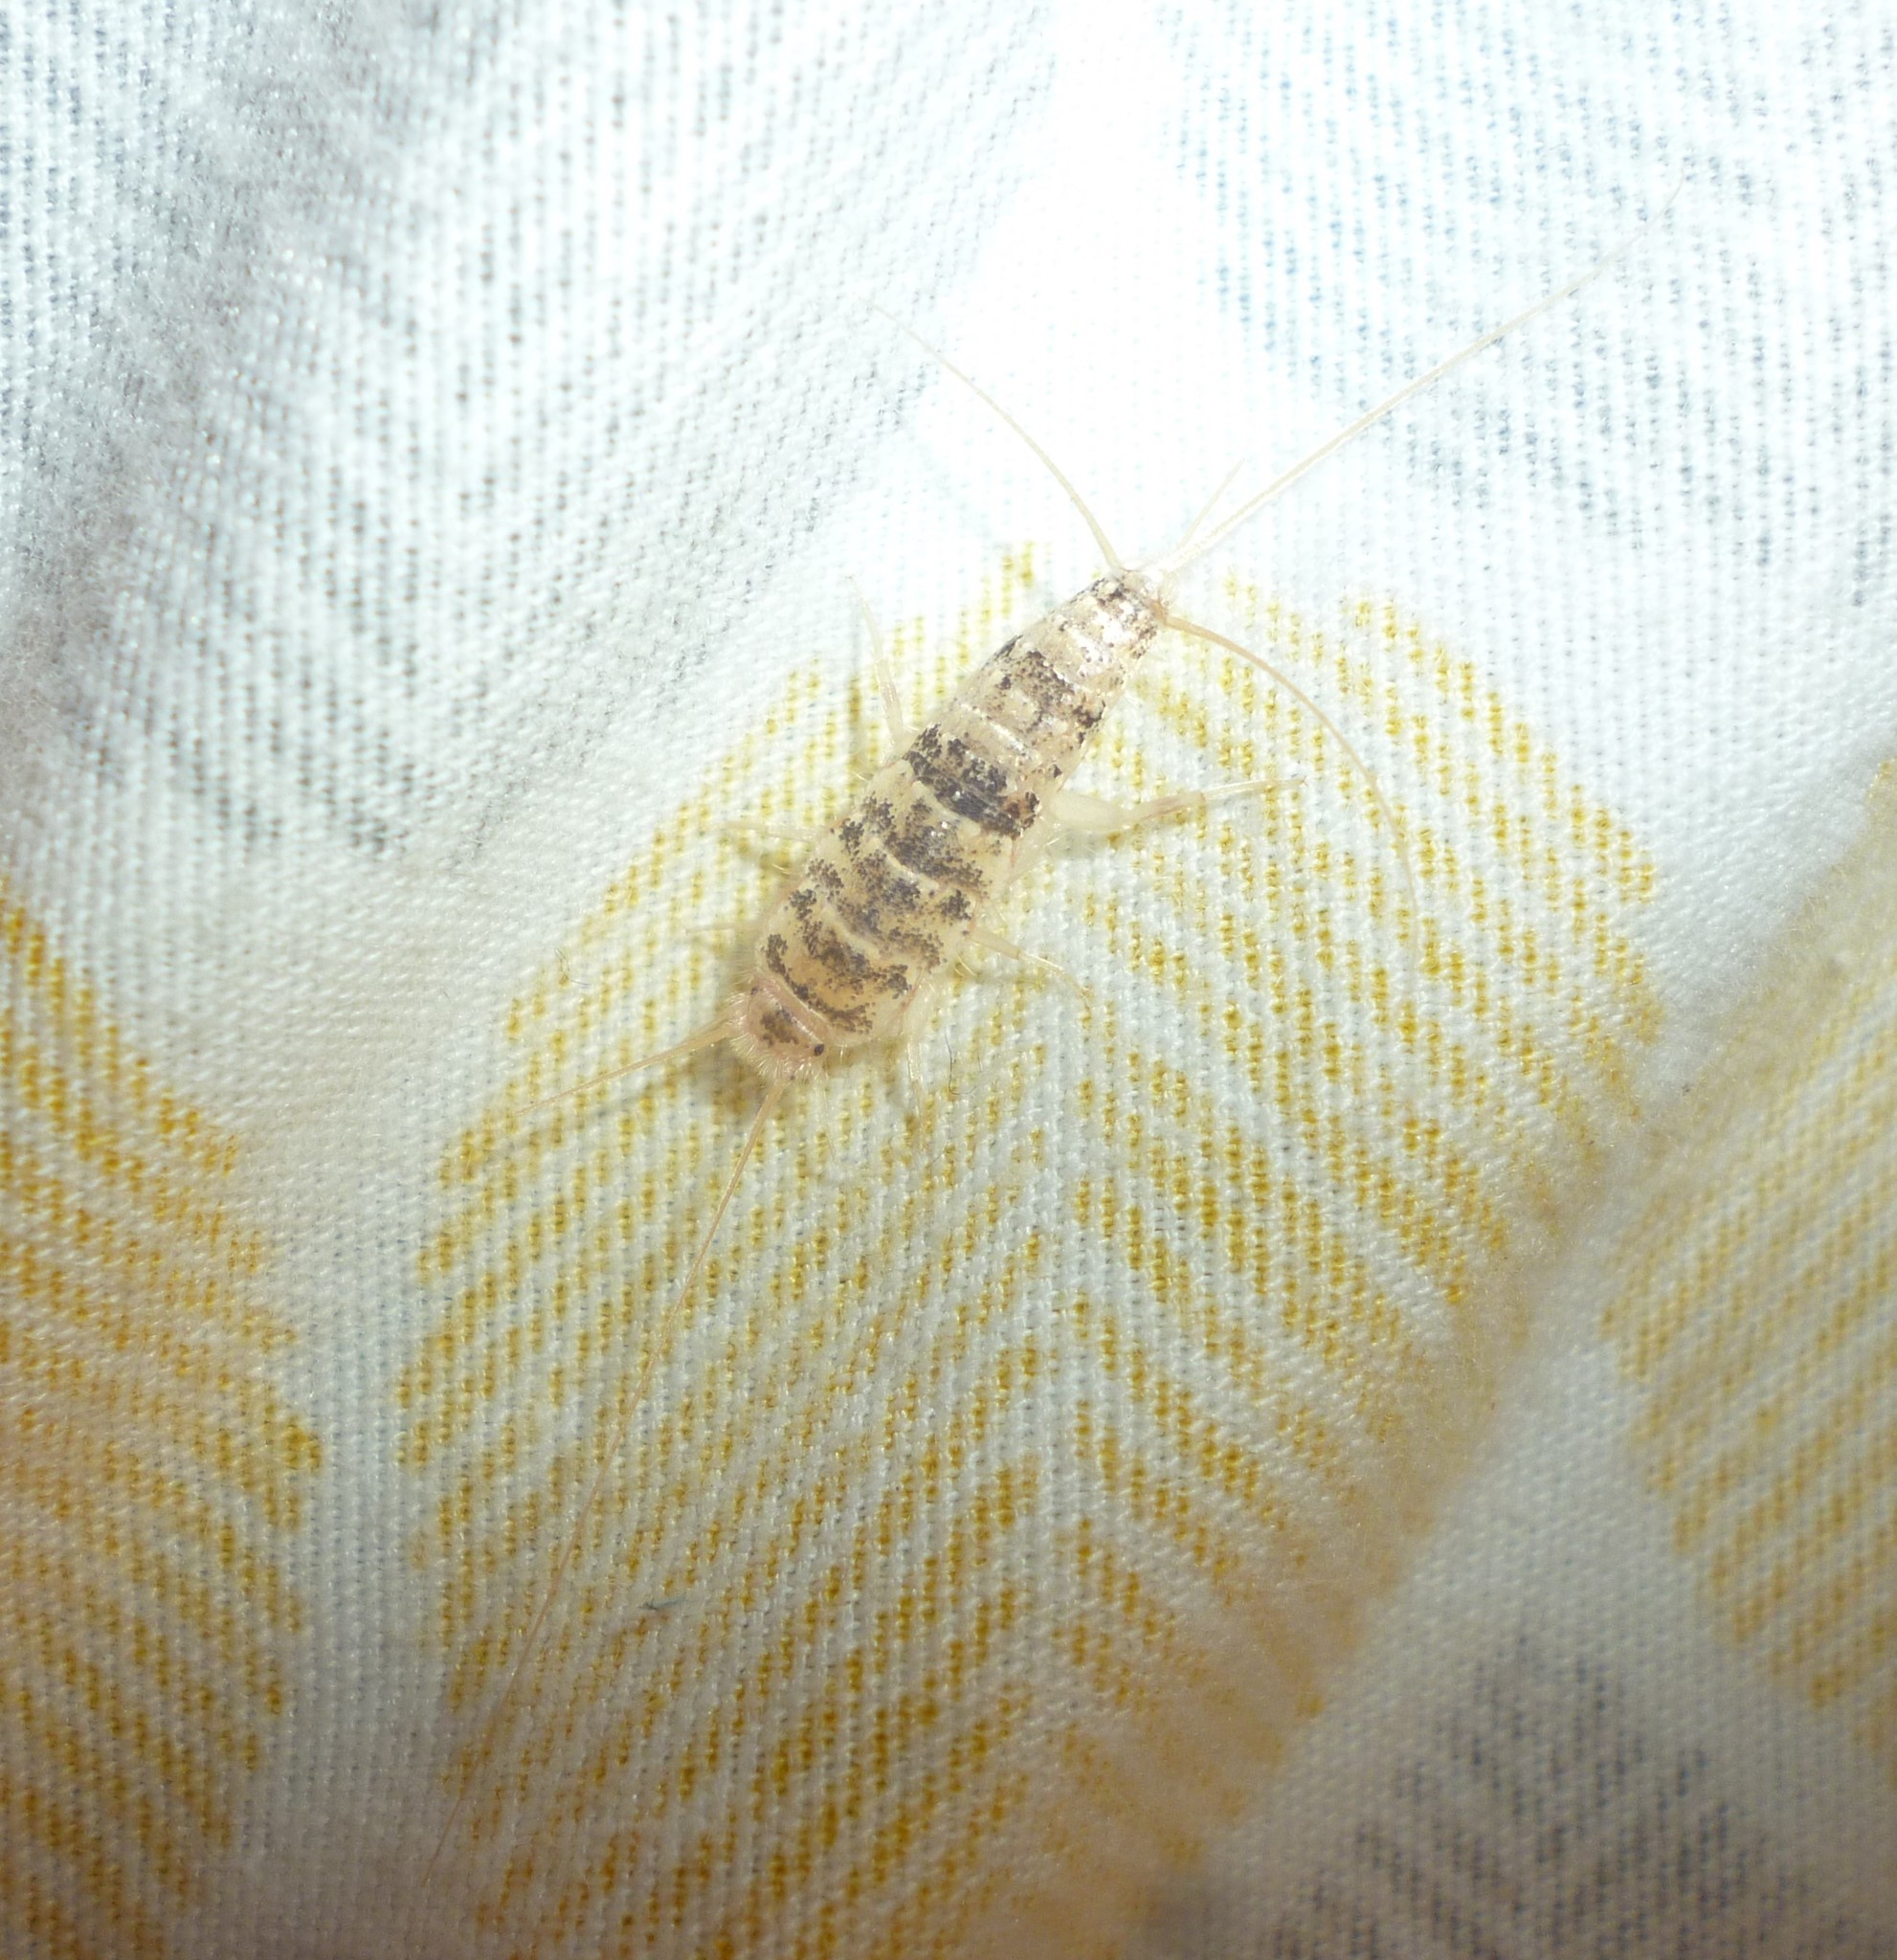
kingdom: Animalia
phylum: Arthropoda
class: Insecta
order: Zygentoma
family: Lepismatidae
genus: Thermobia
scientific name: Thermobia domestica
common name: Firebrat
